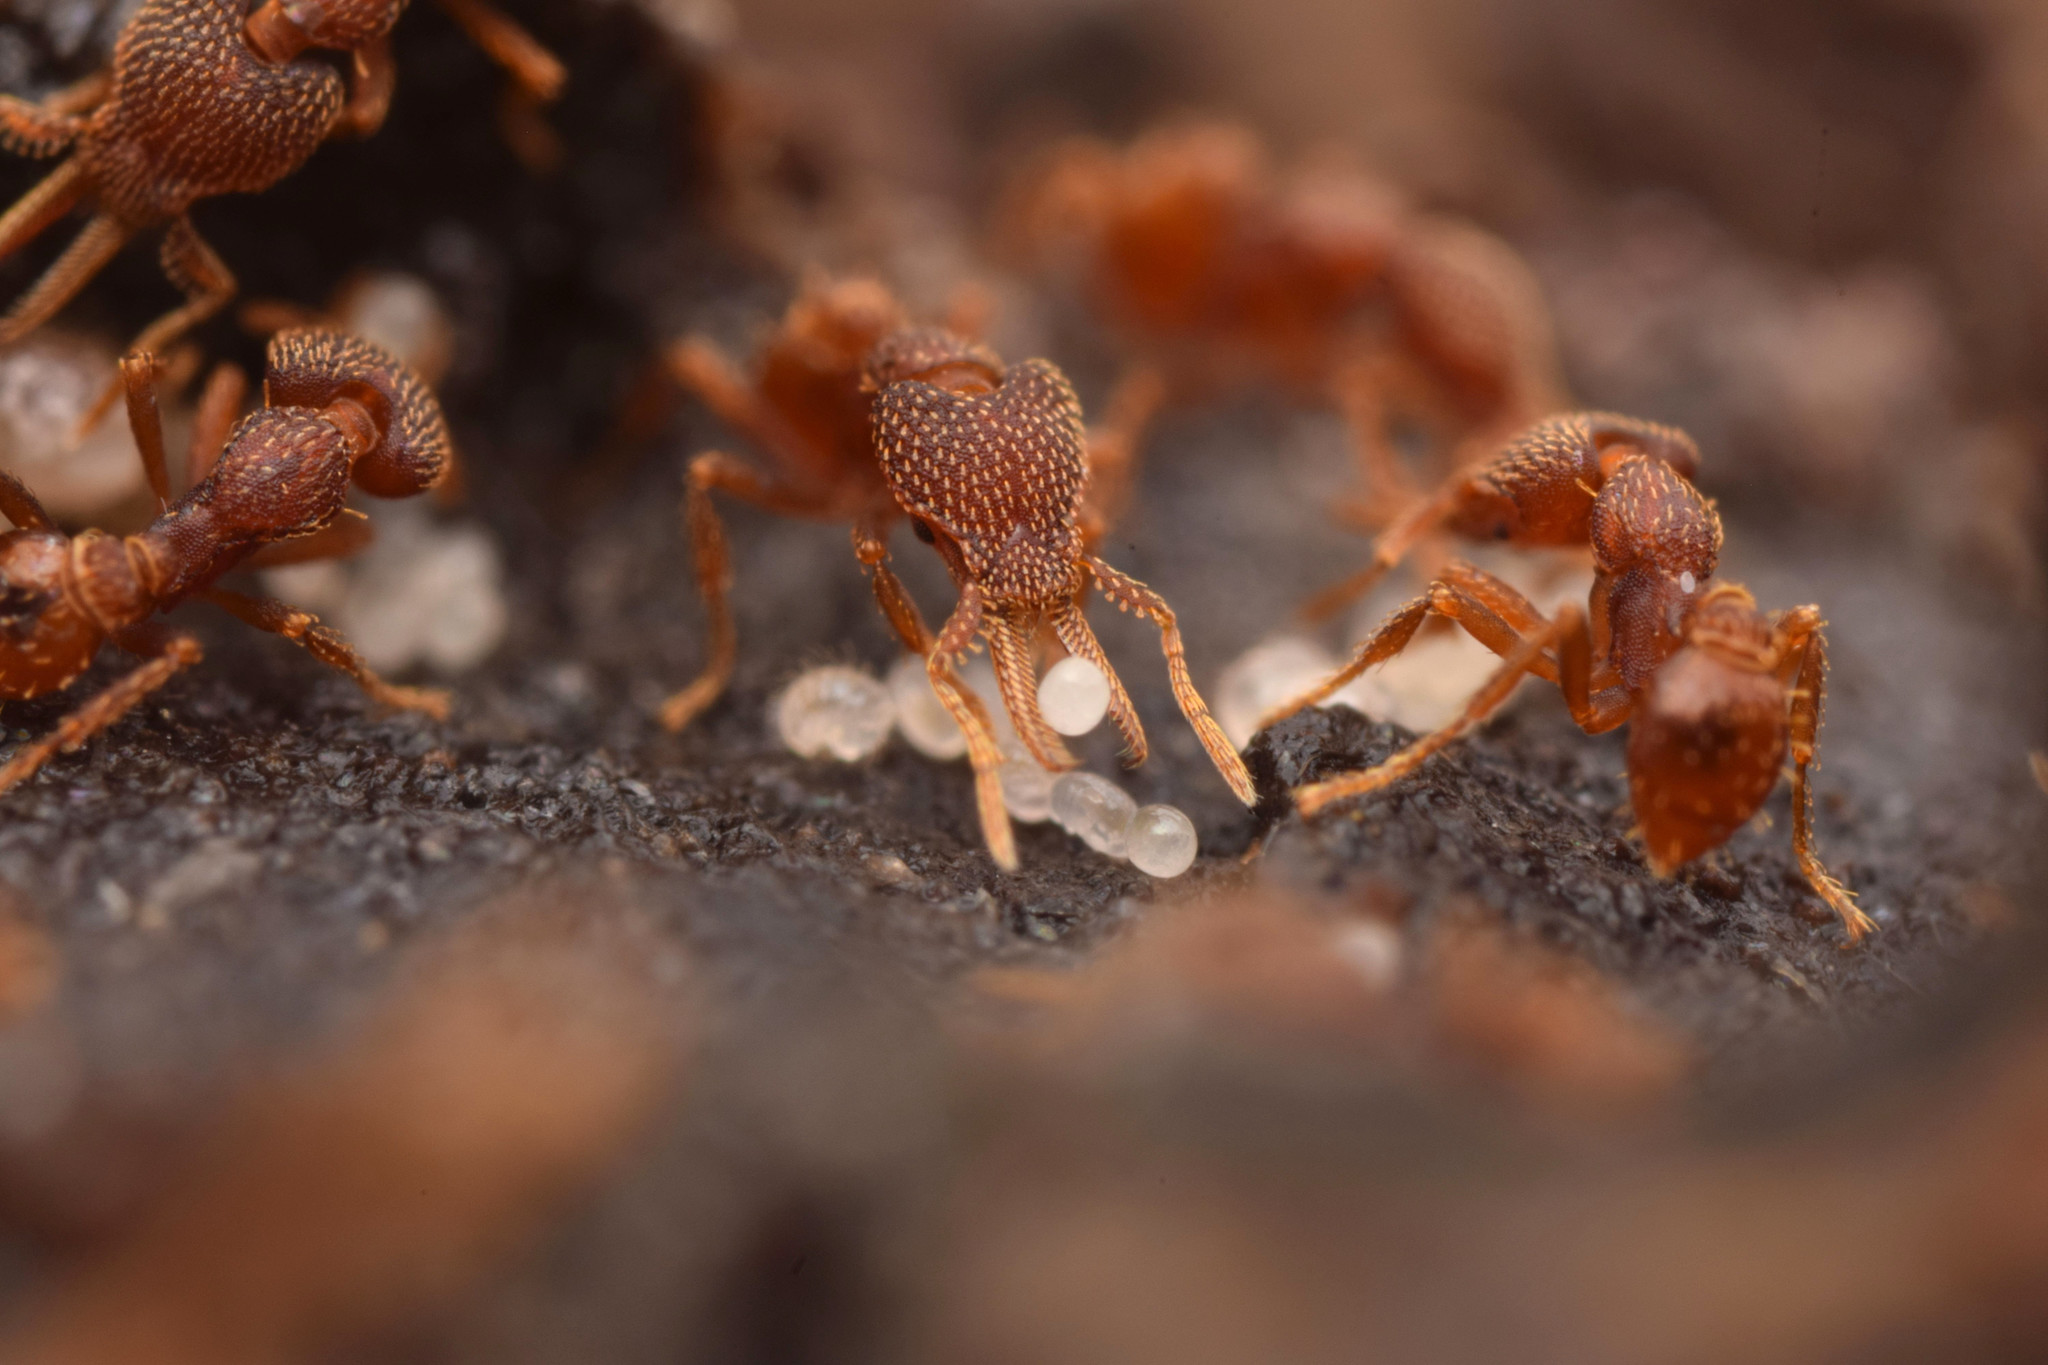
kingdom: Animalia
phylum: Arthropoda
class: Insecta
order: Hymenoptera
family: Formicidae
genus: Strumigenys
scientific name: Strumigenys lalassa
